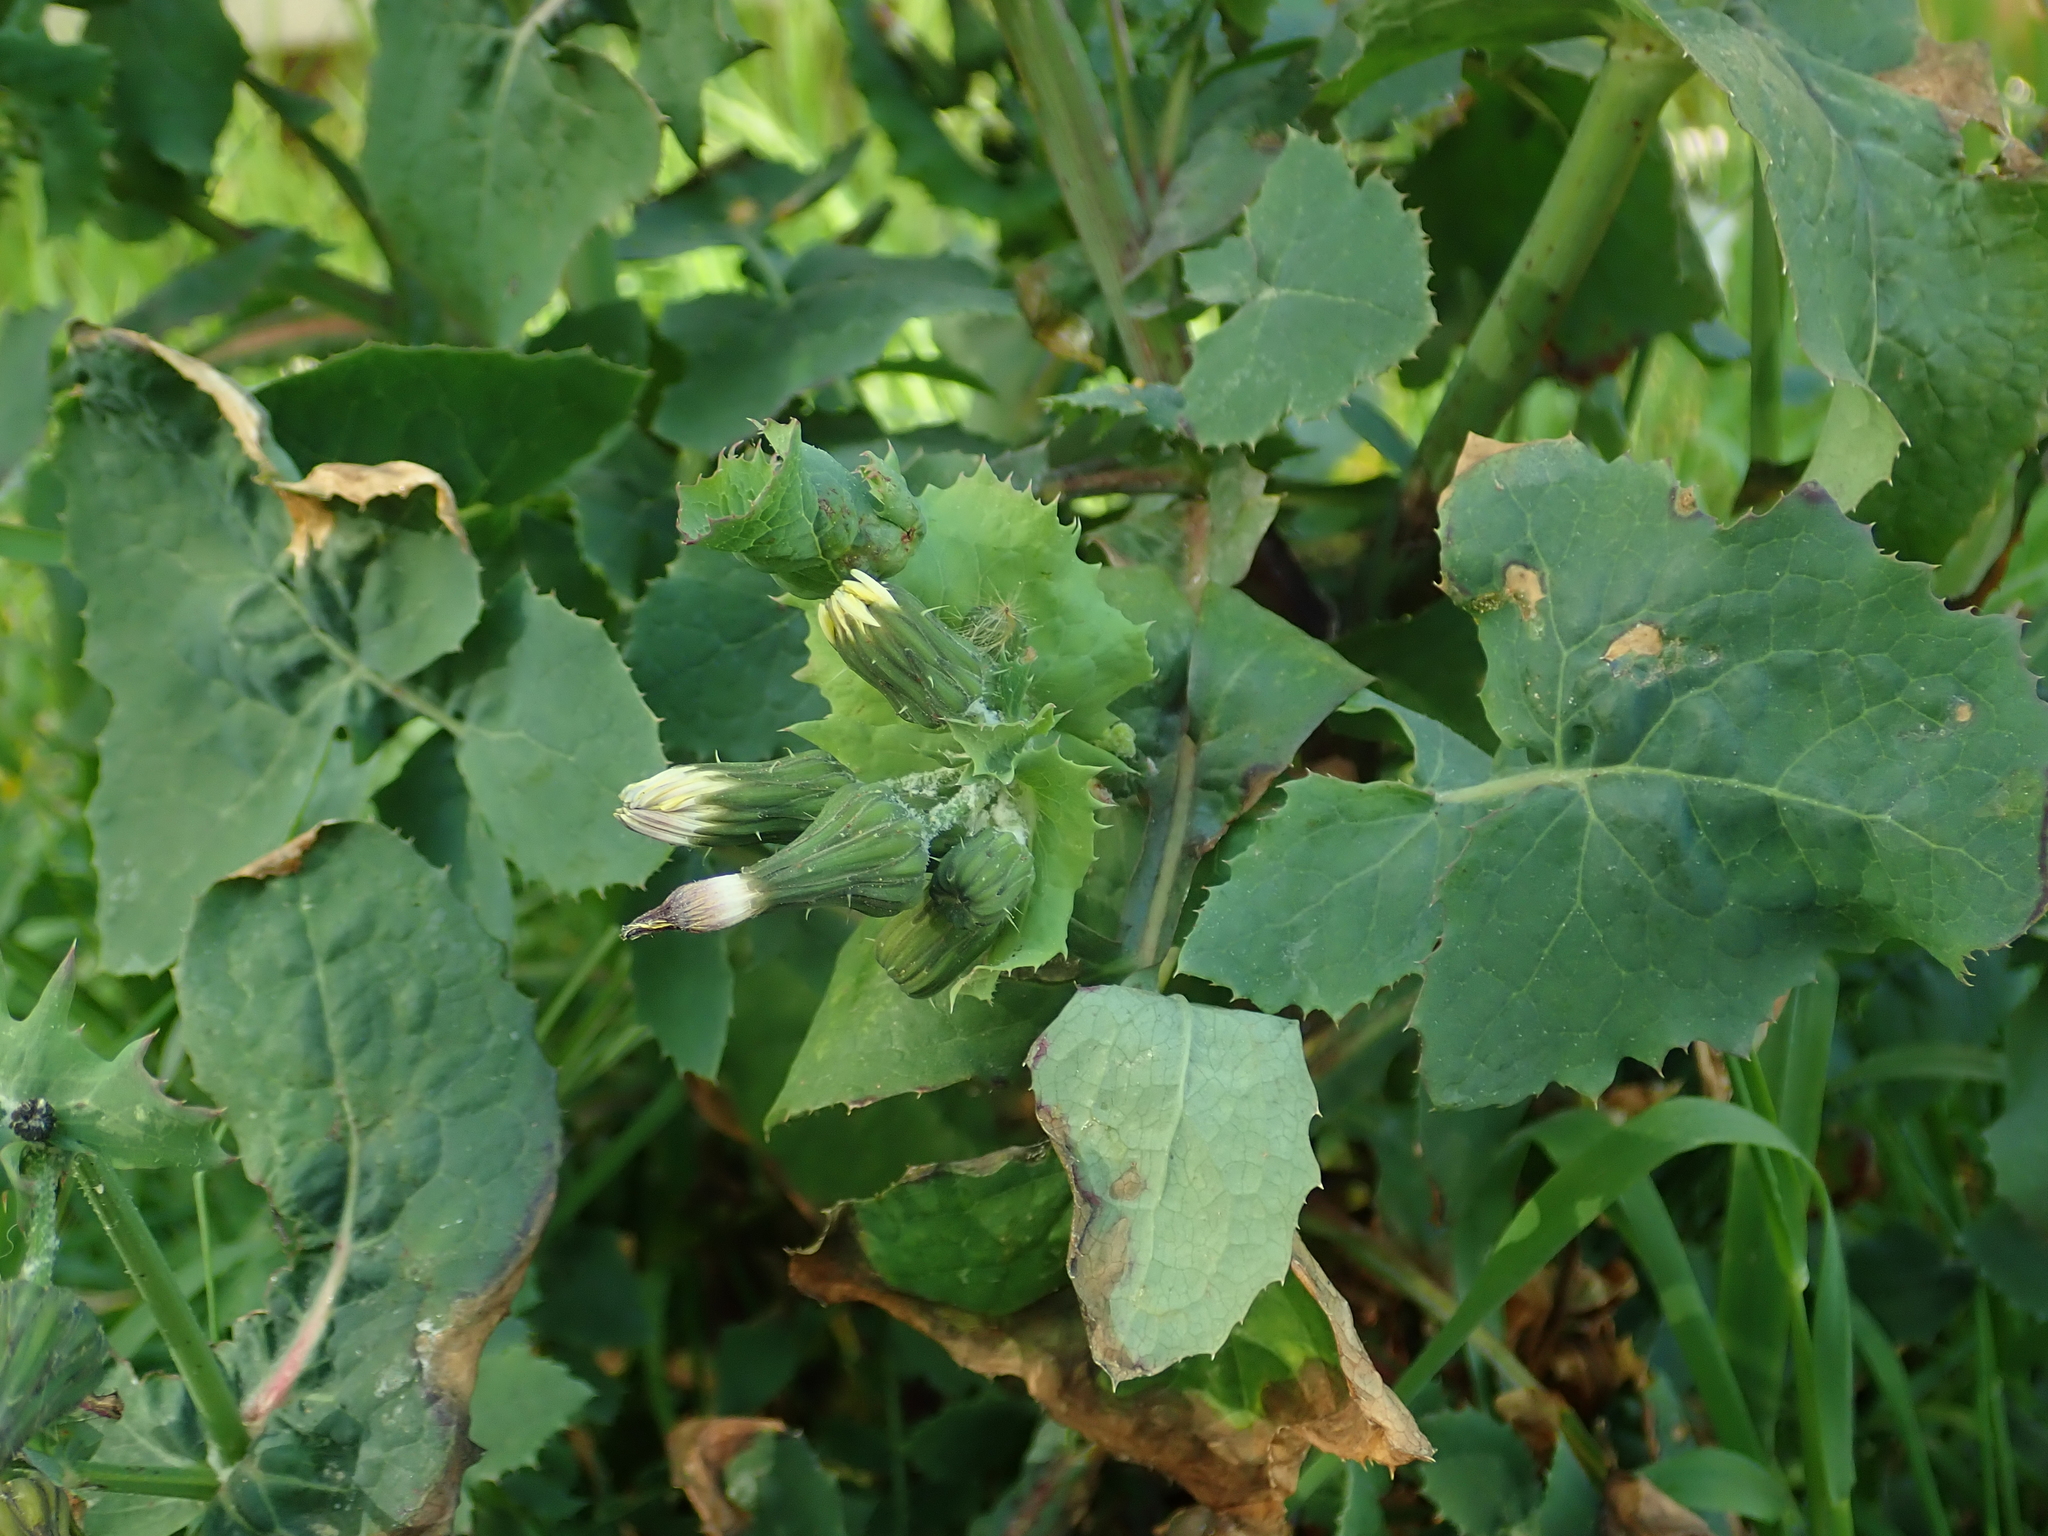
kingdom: Plantae
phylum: Tracheophyta
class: Magnoliopsida
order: Asterales
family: Asteraceae
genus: Sonchus
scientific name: Sonchus oleraceus
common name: Common sowthistle
